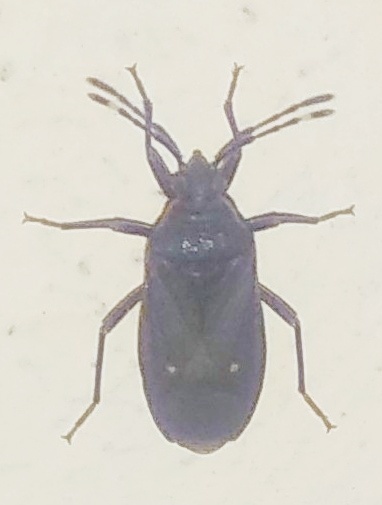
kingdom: Animalia
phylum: Arthropoda
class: Insecta
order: Hemiptera
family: Pyrrhocoridae
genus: Euscopus
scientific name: Euscopus indecorus
